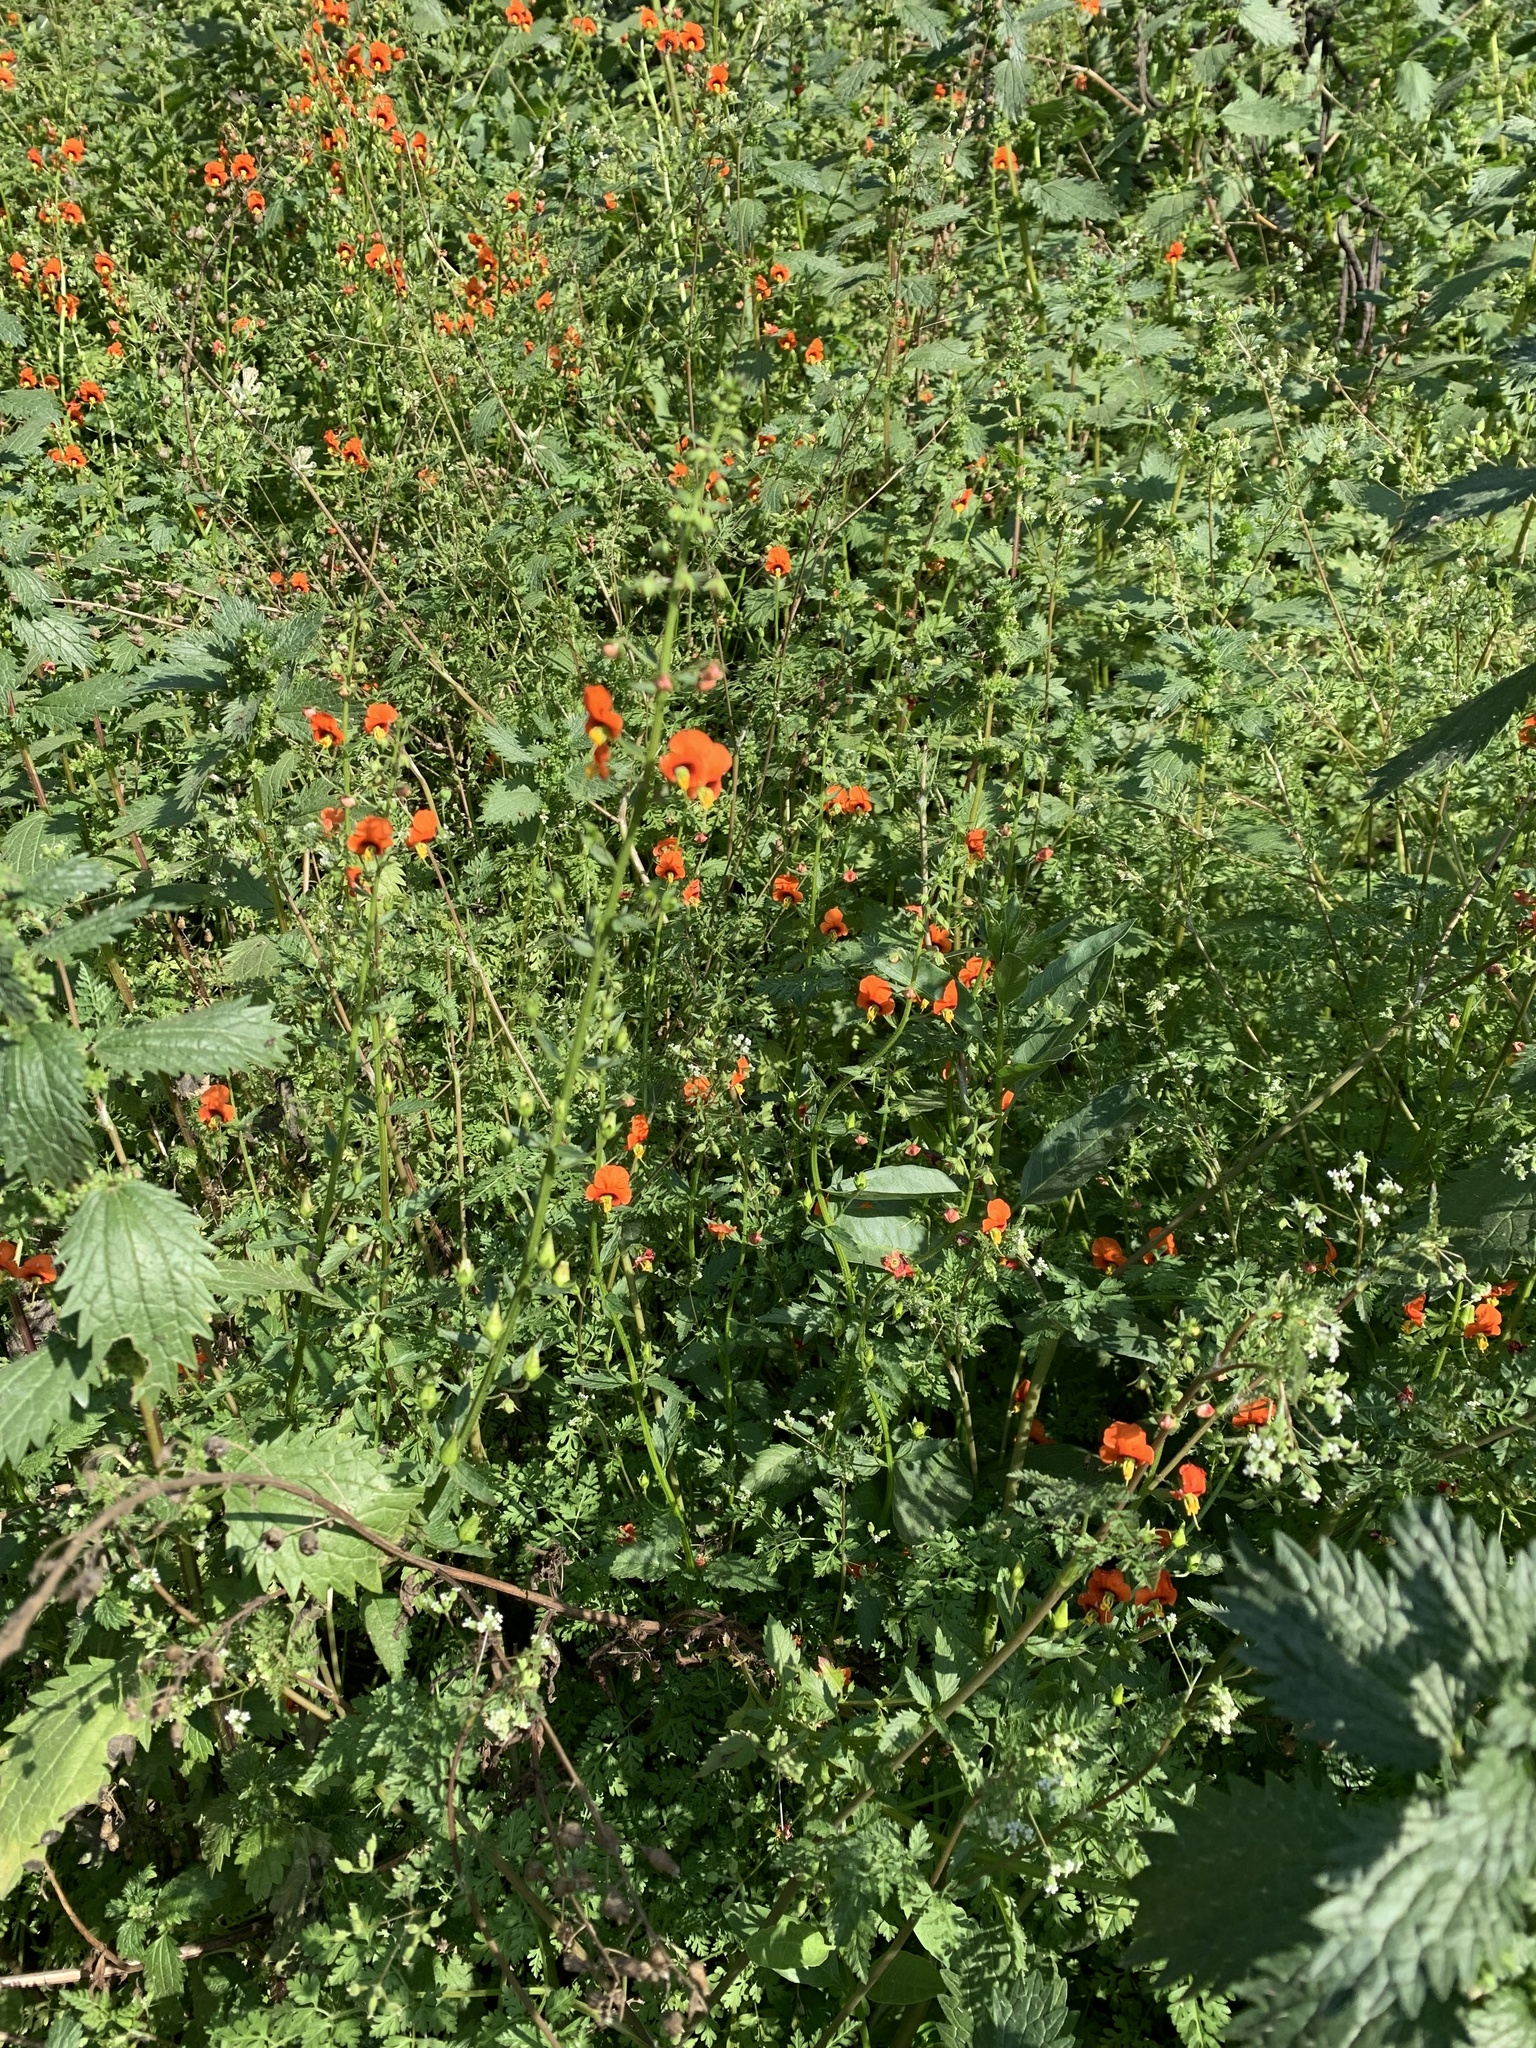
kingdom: Plantae
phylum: Tracheophyta
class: Magnoliopsida
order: Lamiales
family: Scrophulariaceae
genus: Alonsoa
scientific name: Alonsoa meridionalis
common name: Maskflower
